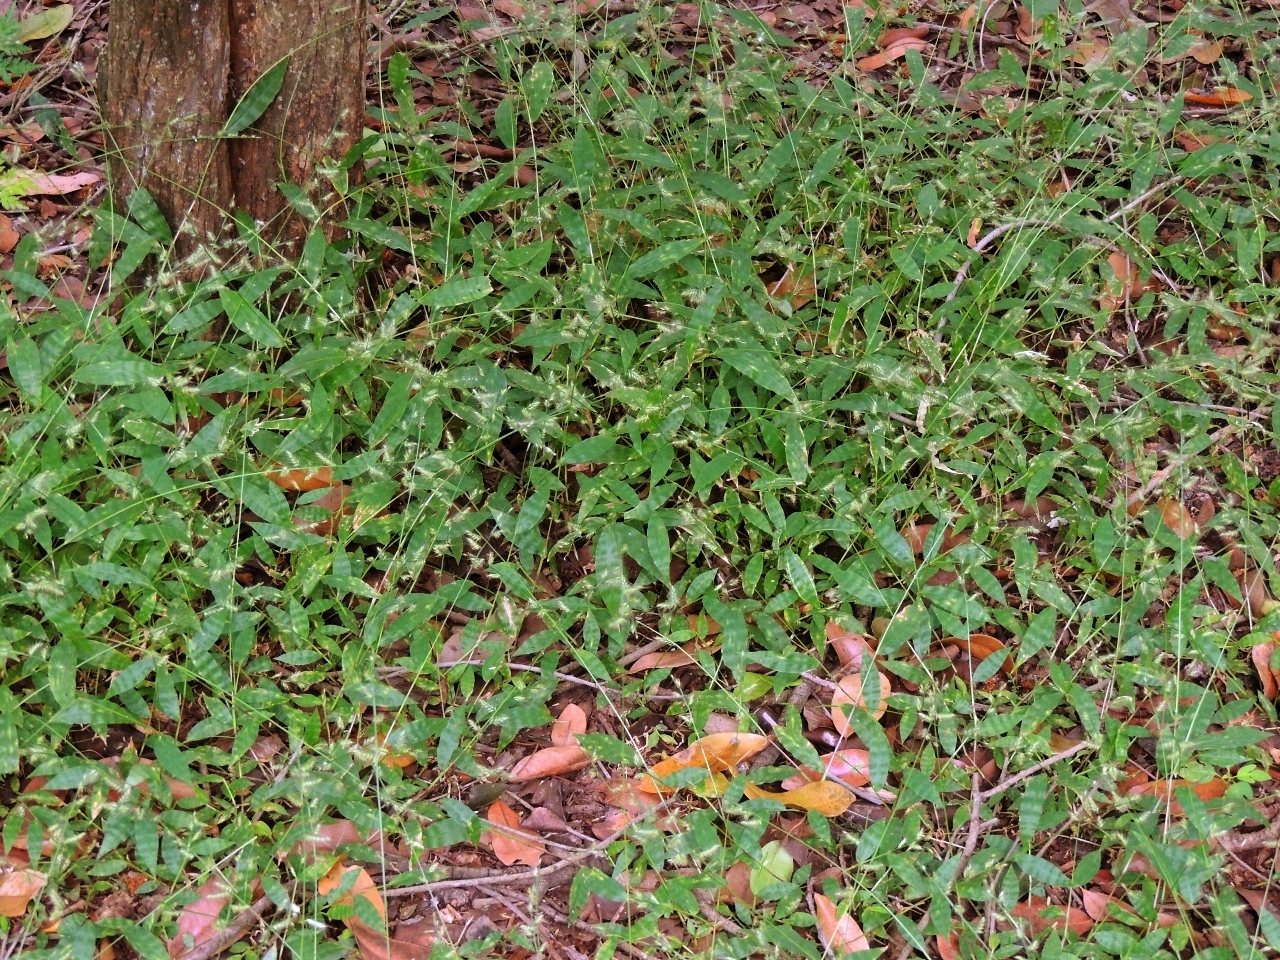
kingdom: Plantae
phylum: Tracheophyta
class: Liliopsida
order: Poales
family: Poaceae
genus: Oplismenus
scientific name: Oplismenus burmanni
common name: Burmann's basketgrass
